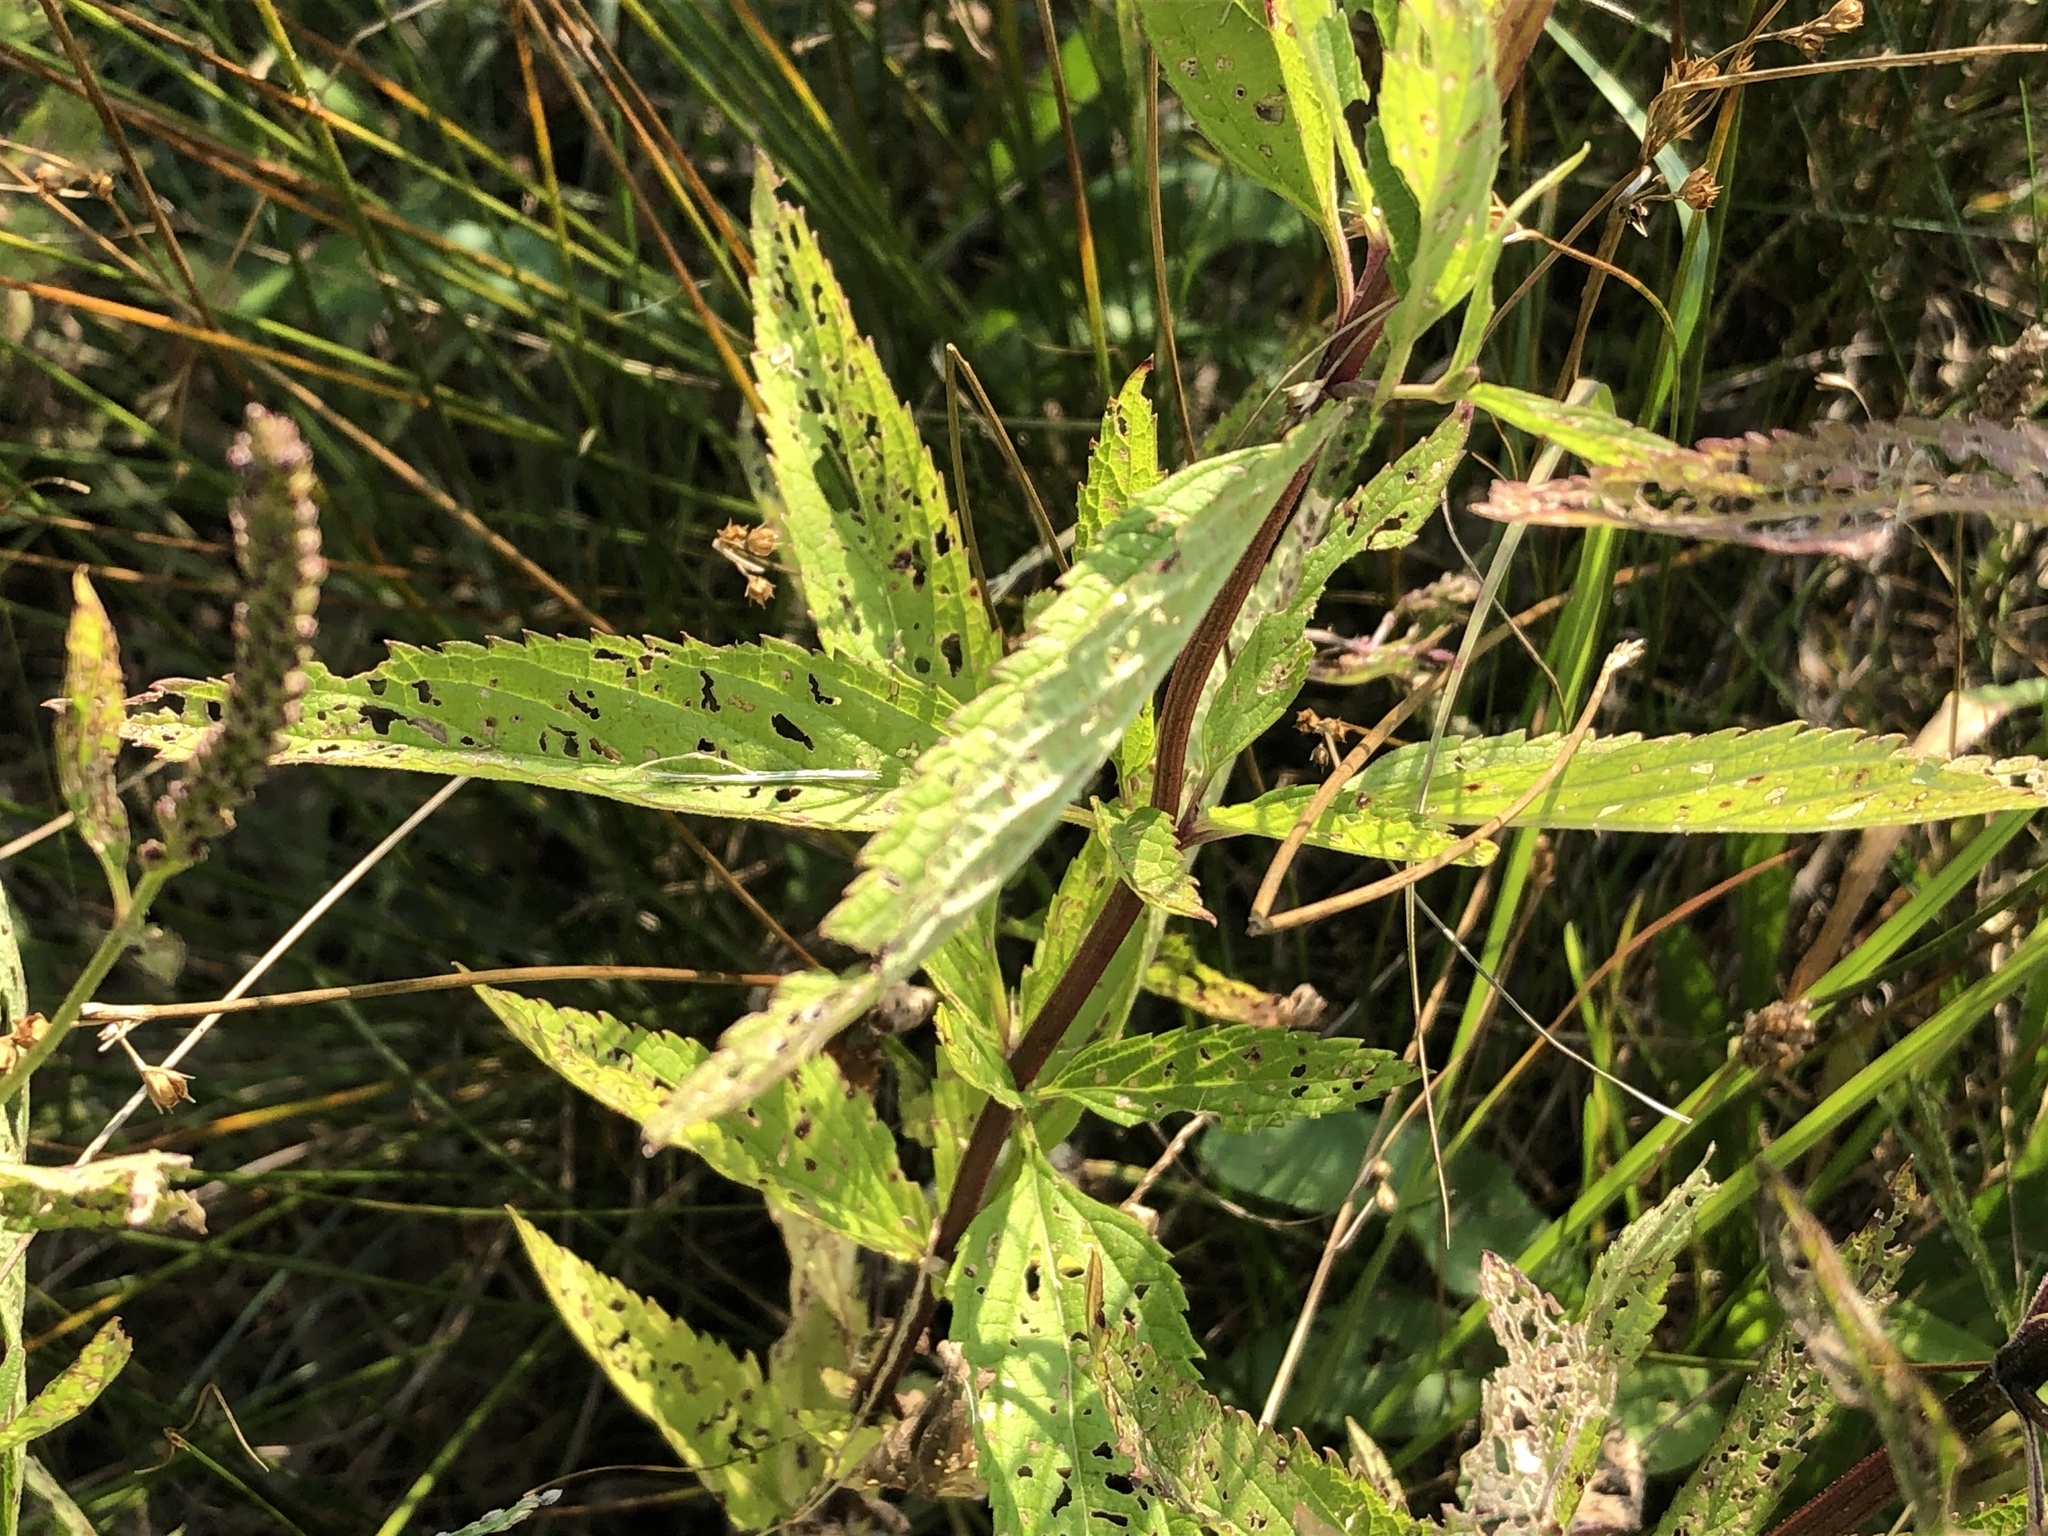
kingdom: Plantae
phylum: Tracheophyta
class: Magnoliopsida
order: Lamiales
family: Verbenaceae
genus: Verbena
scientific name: Verbena hastata
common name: American blue vervain
